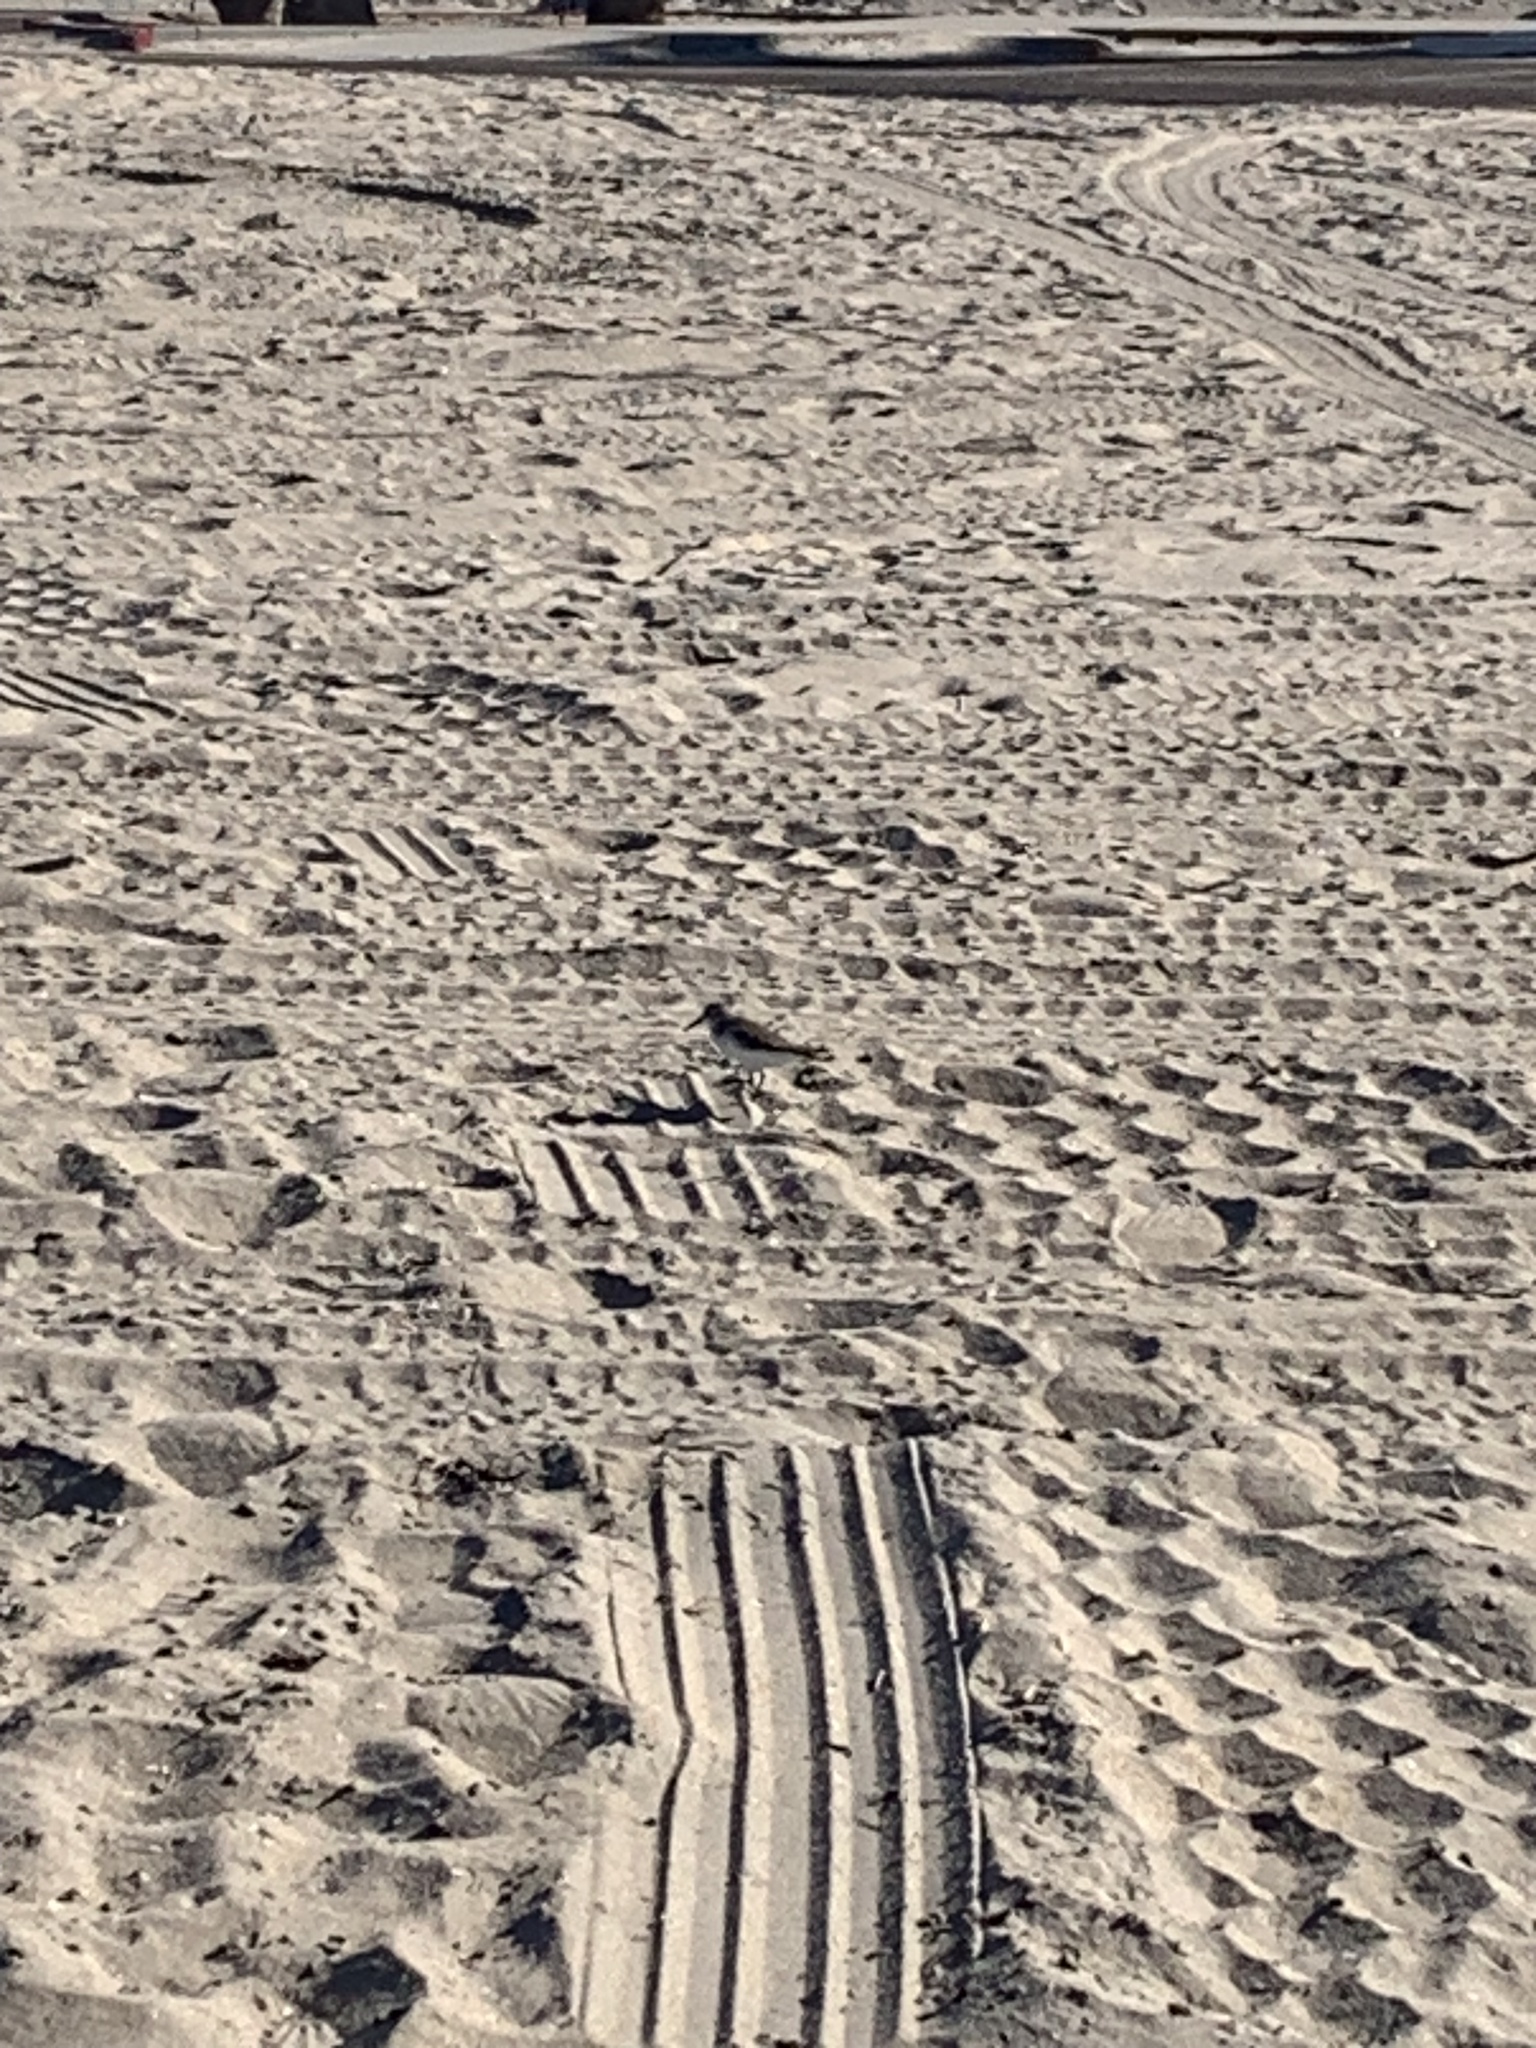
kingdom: Animalia
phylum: Chordata
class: Aves
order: Charadriiformes
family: Scolopacidae
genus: Calidris
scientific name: Calidris alpina
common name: Dunlin
